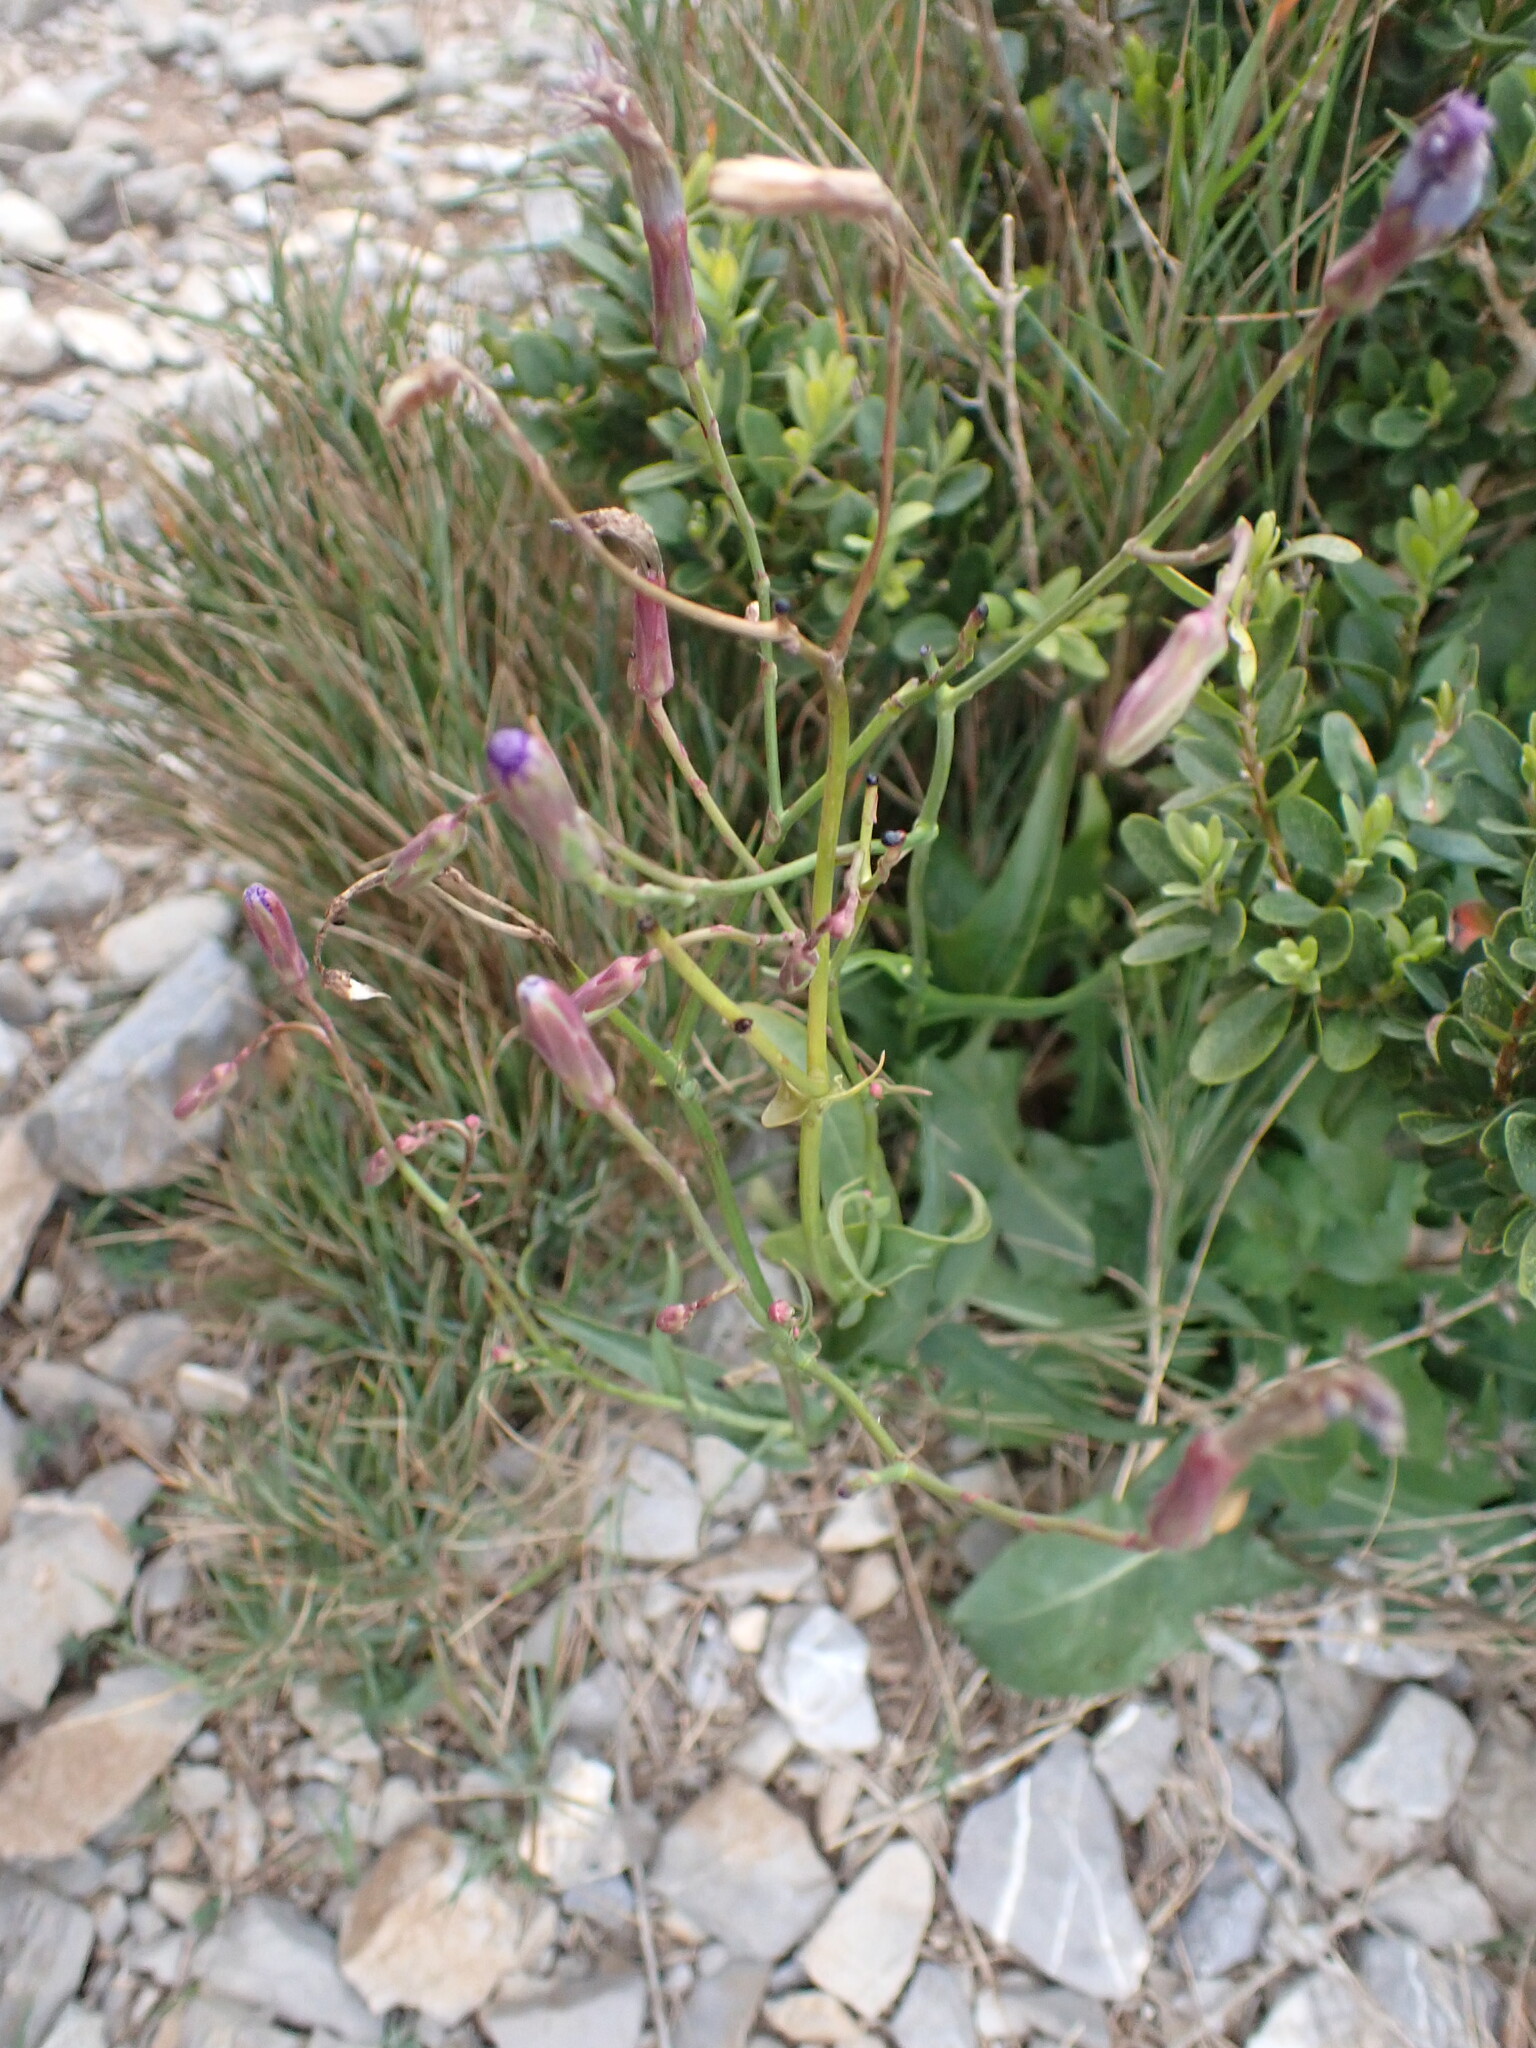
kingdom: Plantae
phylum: Tracheophyta
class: Magnoliopsida
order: Asterales
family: Asteraceae
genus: Lactuca
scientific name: Lactuca perennis
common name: Mountain lettuce
